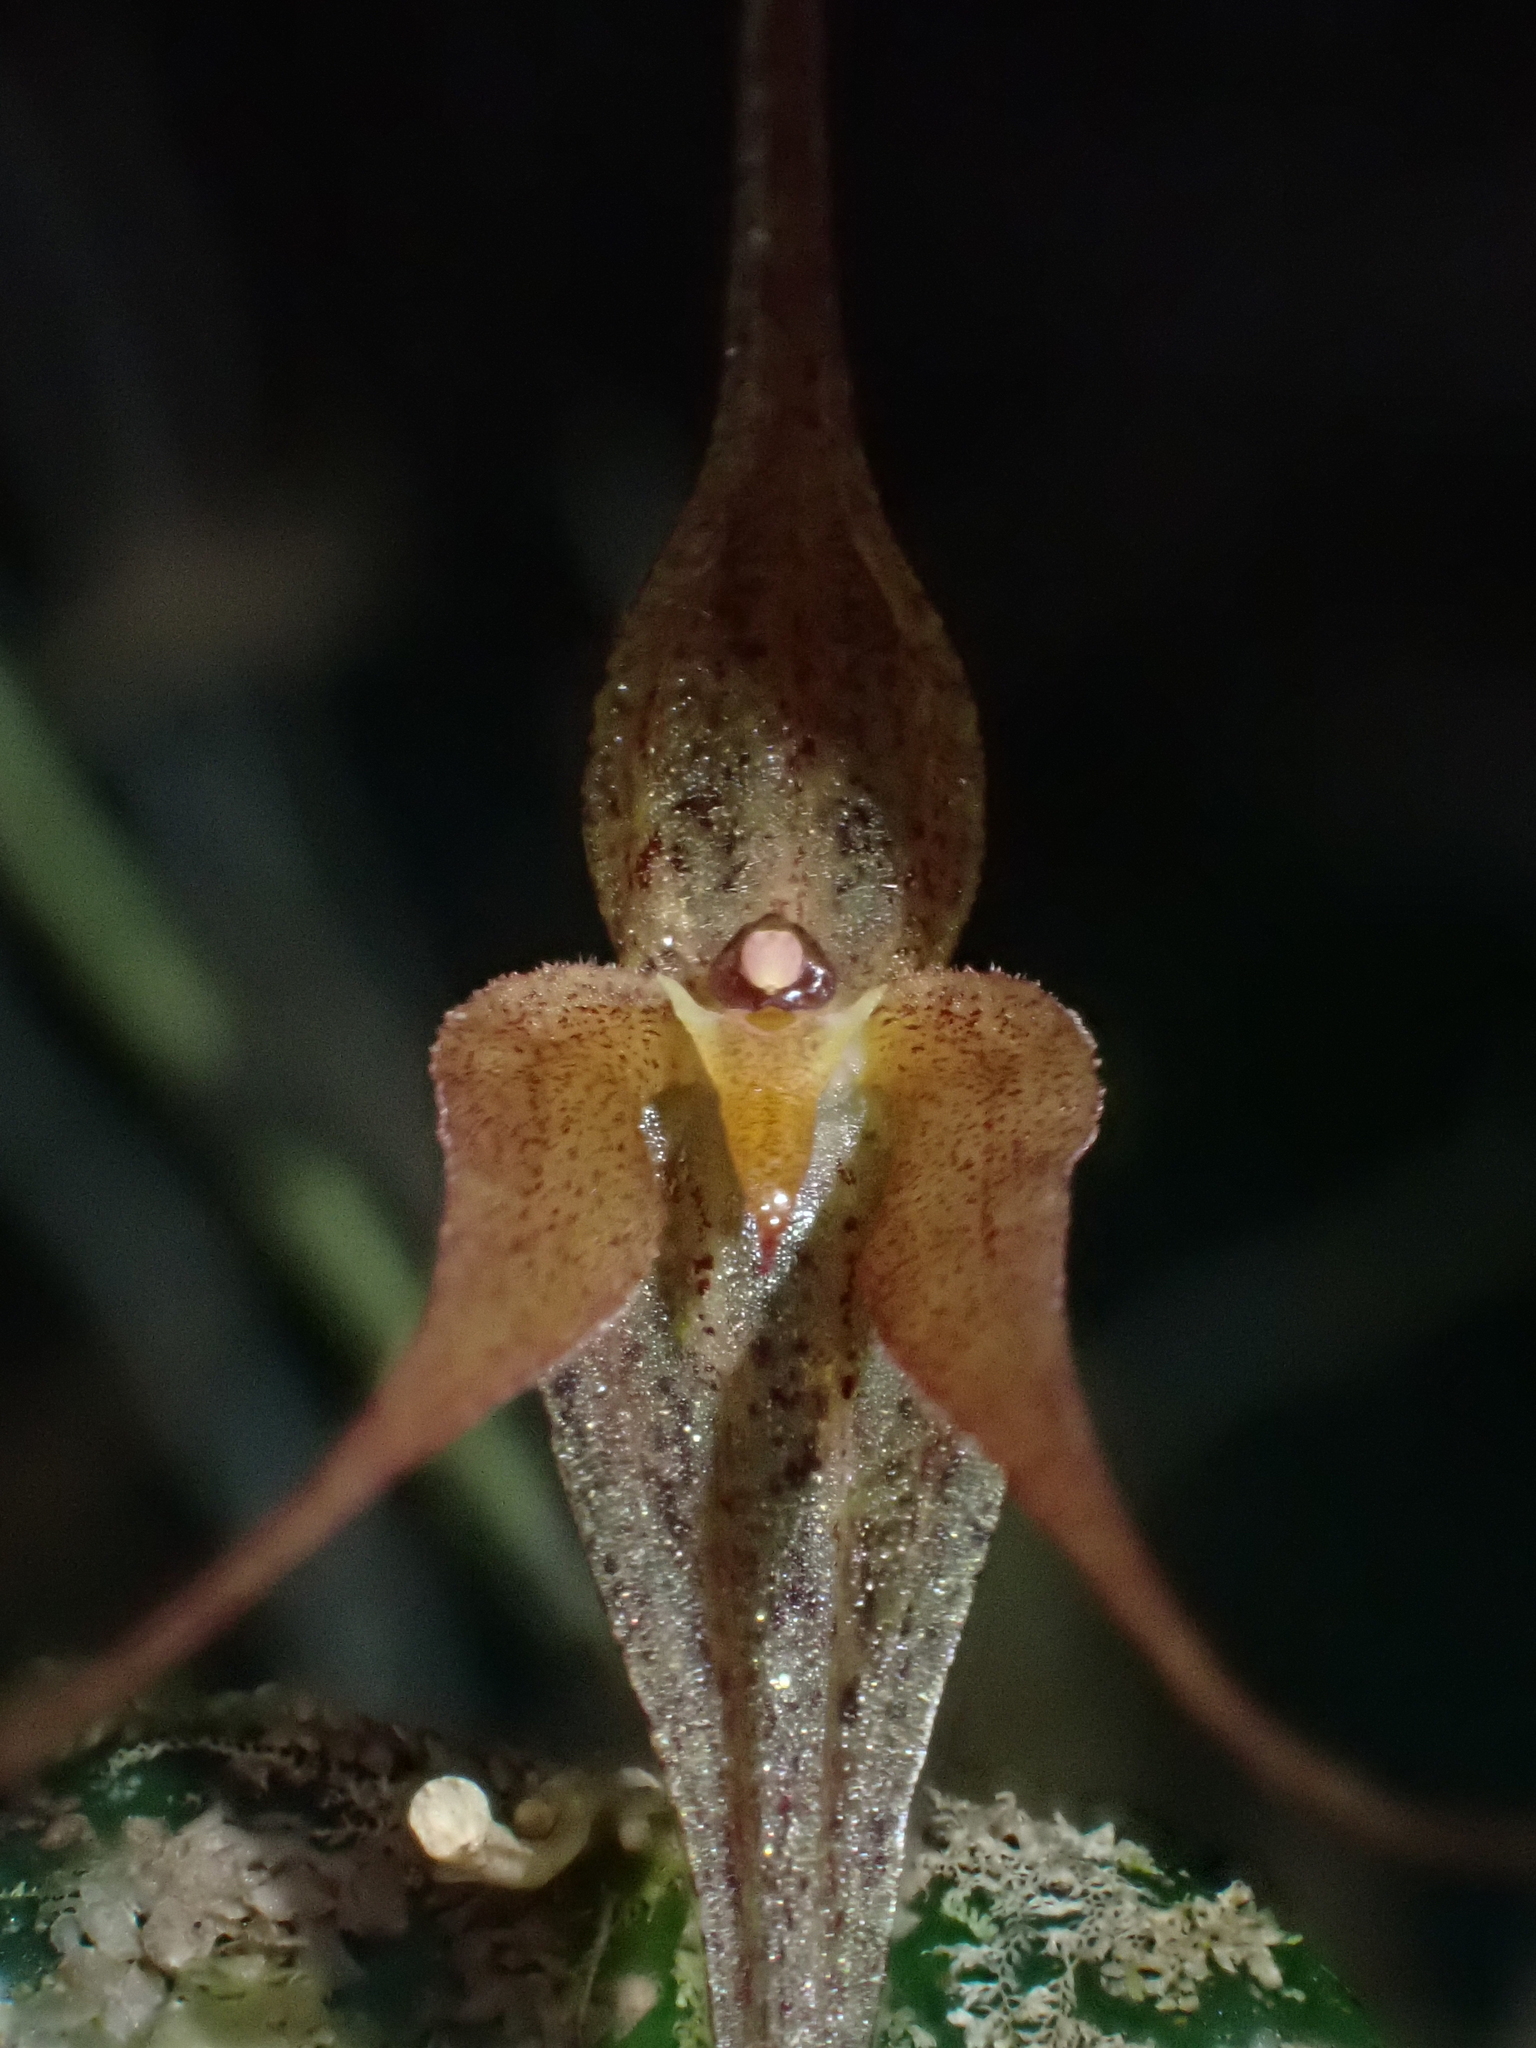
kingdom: Plantae
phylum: Tracheophyta
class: Liliopsida
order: Asparagales
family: Orchidaceae
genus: Pleurothallis
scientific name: Pleurothallis quadricaudata
